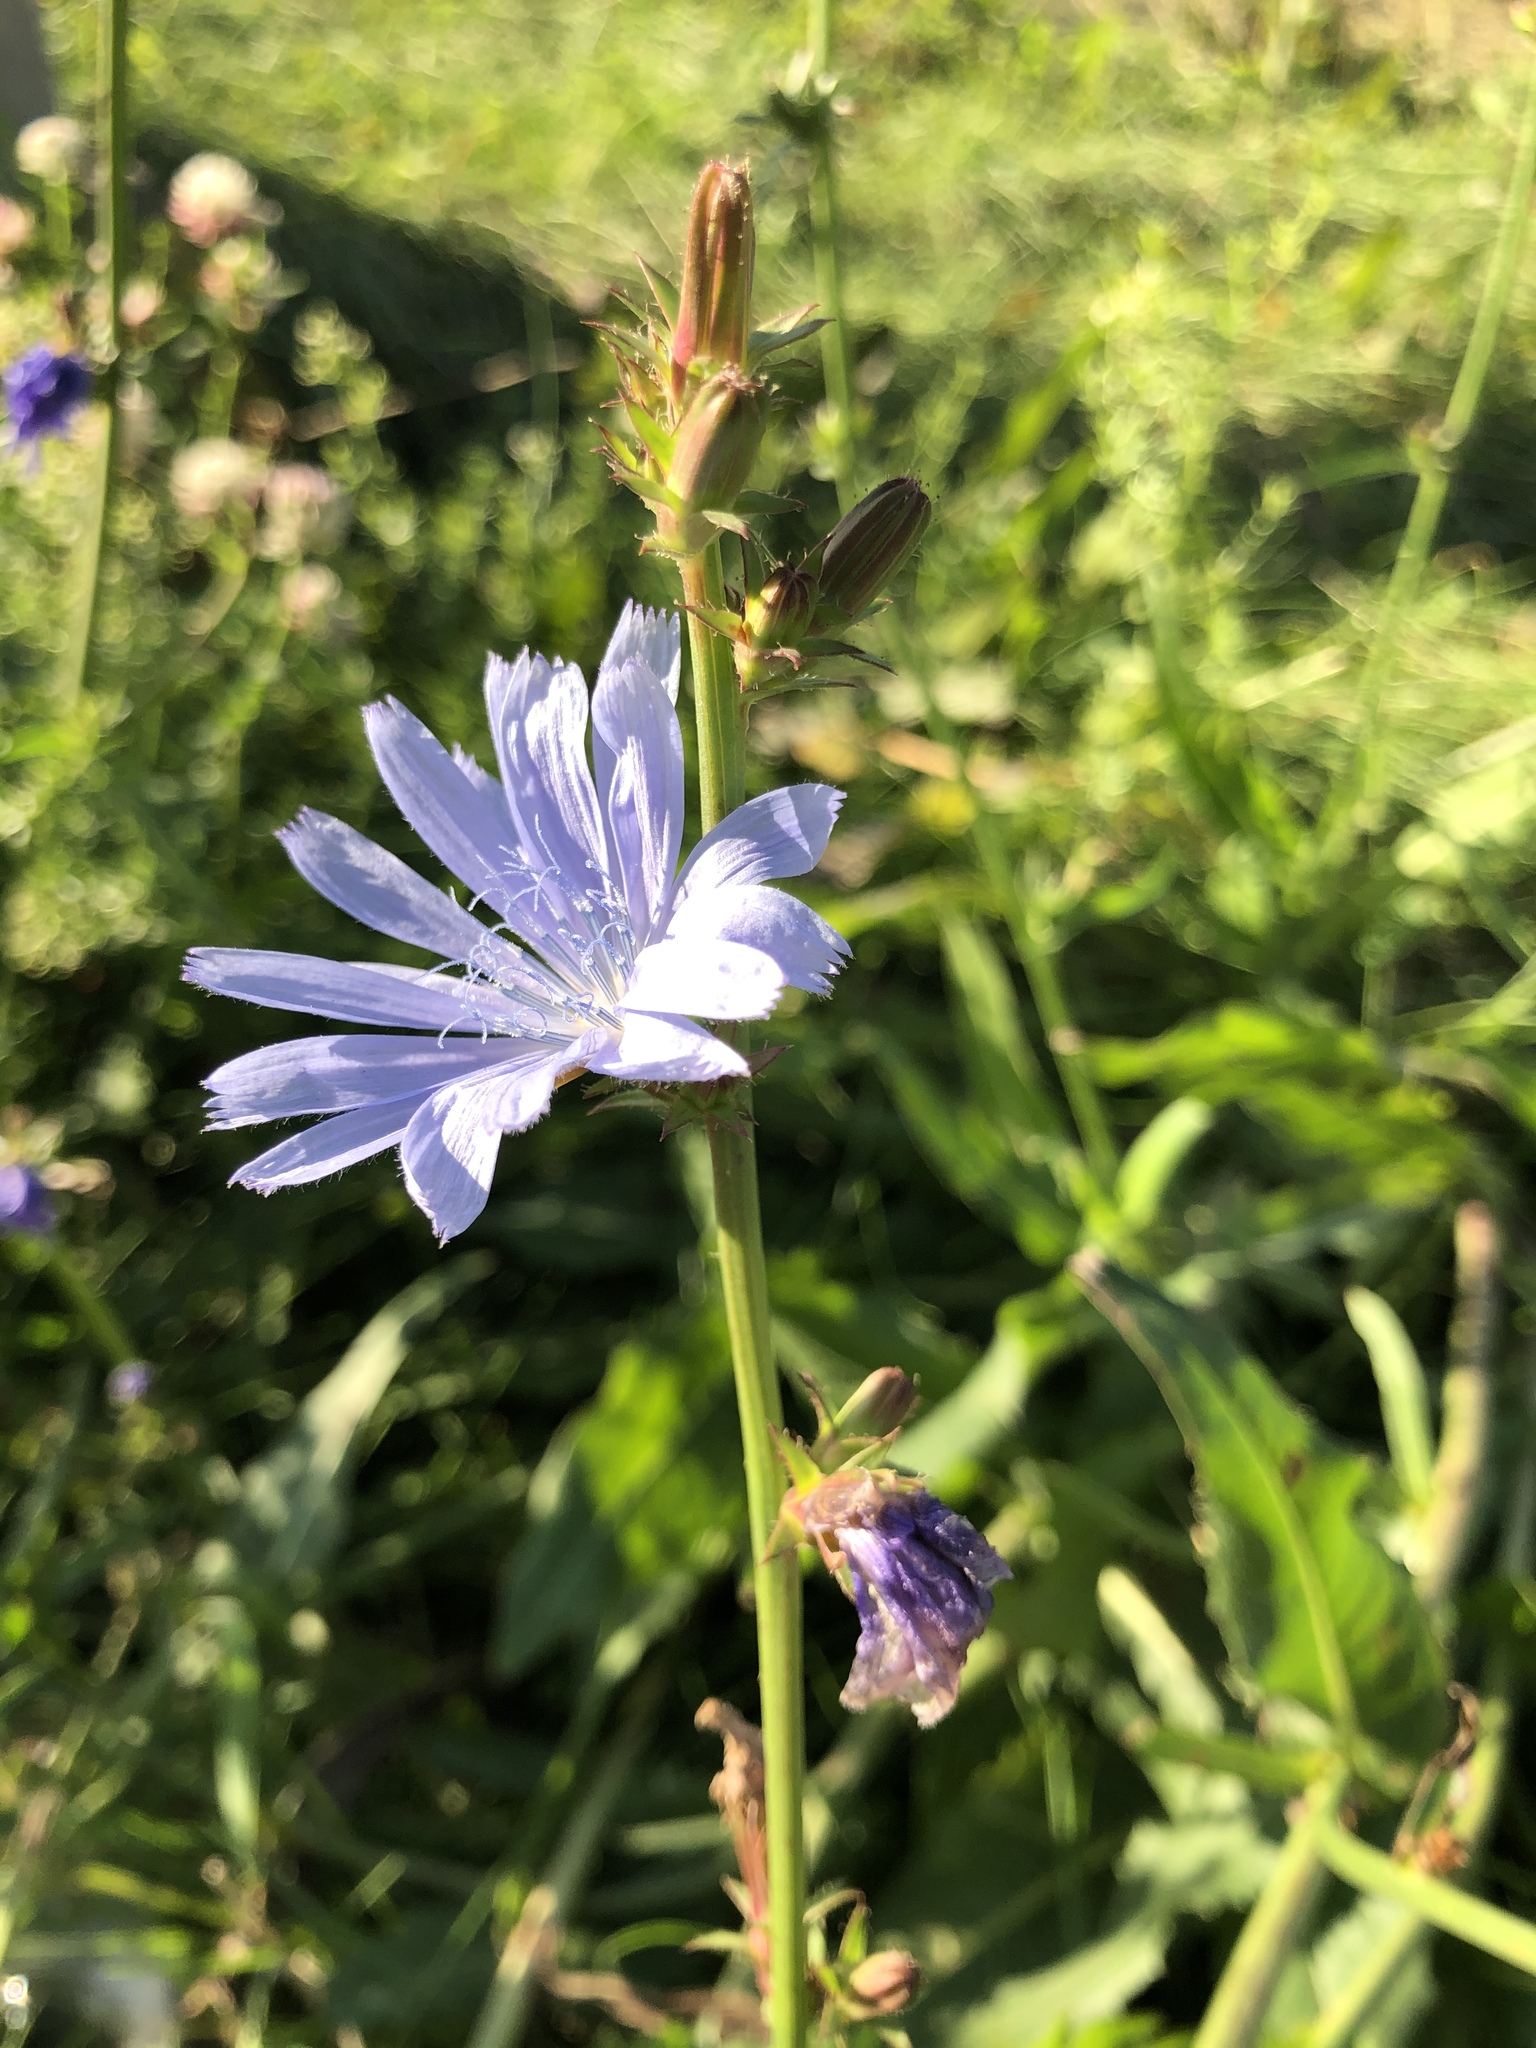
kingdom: Plantae
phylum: Tracheophyta
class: Magnoliopsida
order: Asterales
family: Asteraceae
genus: Cichorium
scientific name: Cichorium intybus
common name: Chicory
